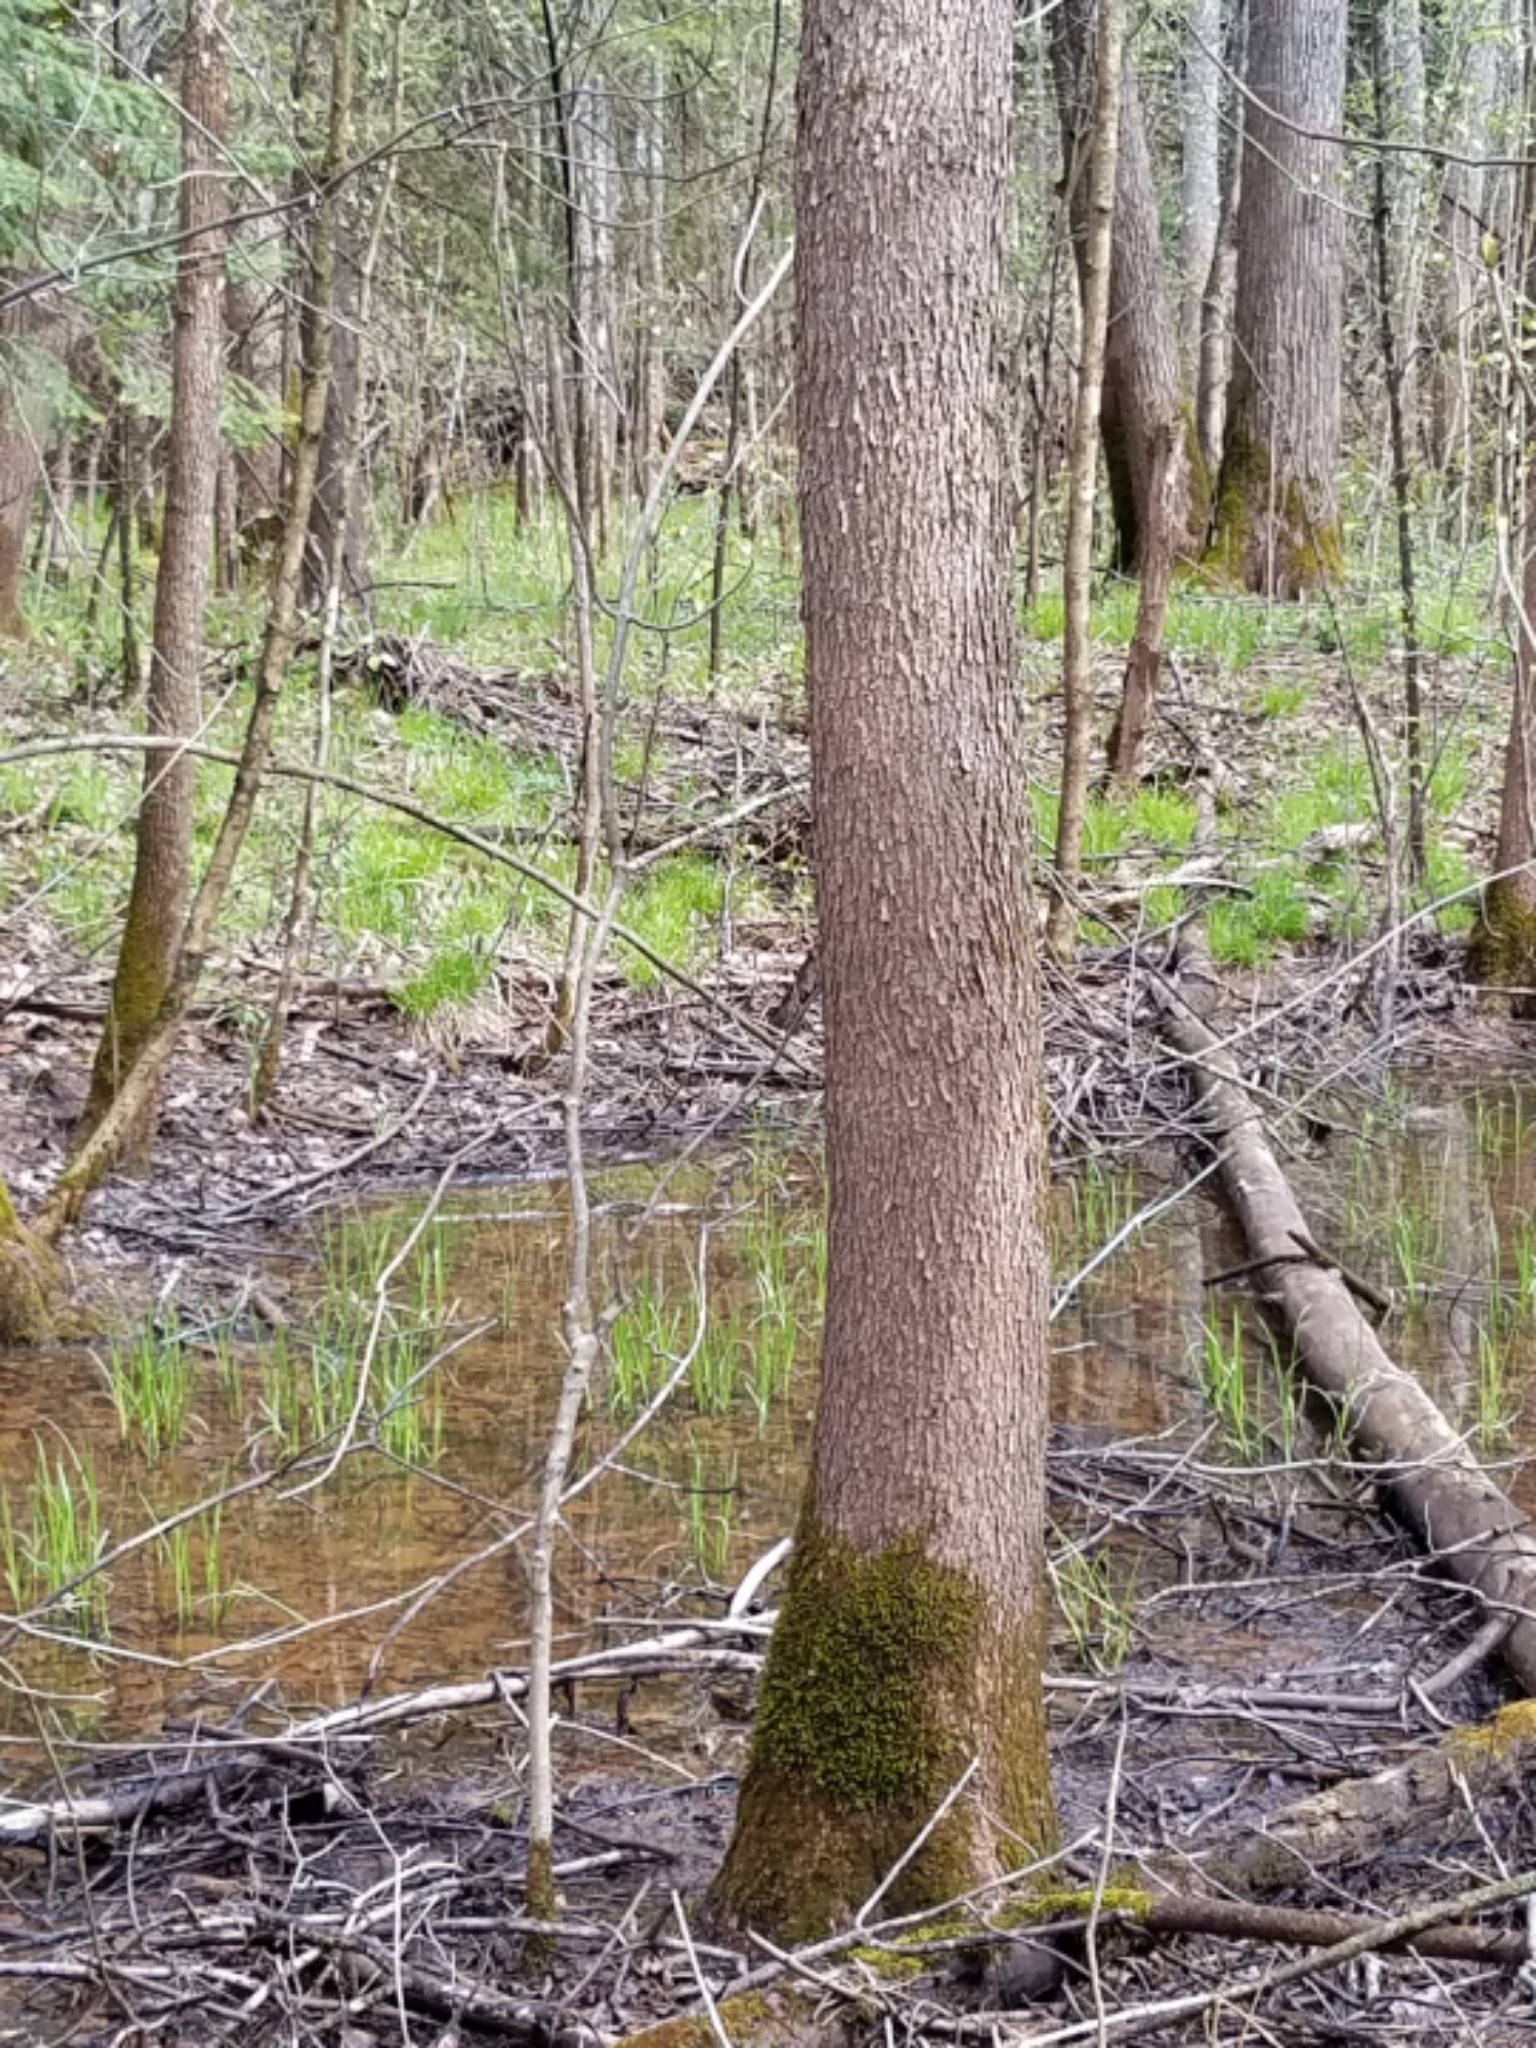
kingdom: Plantae
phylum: Tracheophyta
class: Magnoliopsida
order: Lamiales
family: Oleaceae
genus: Fraxinus
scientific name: Fraxinus nigra
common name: Black ash
